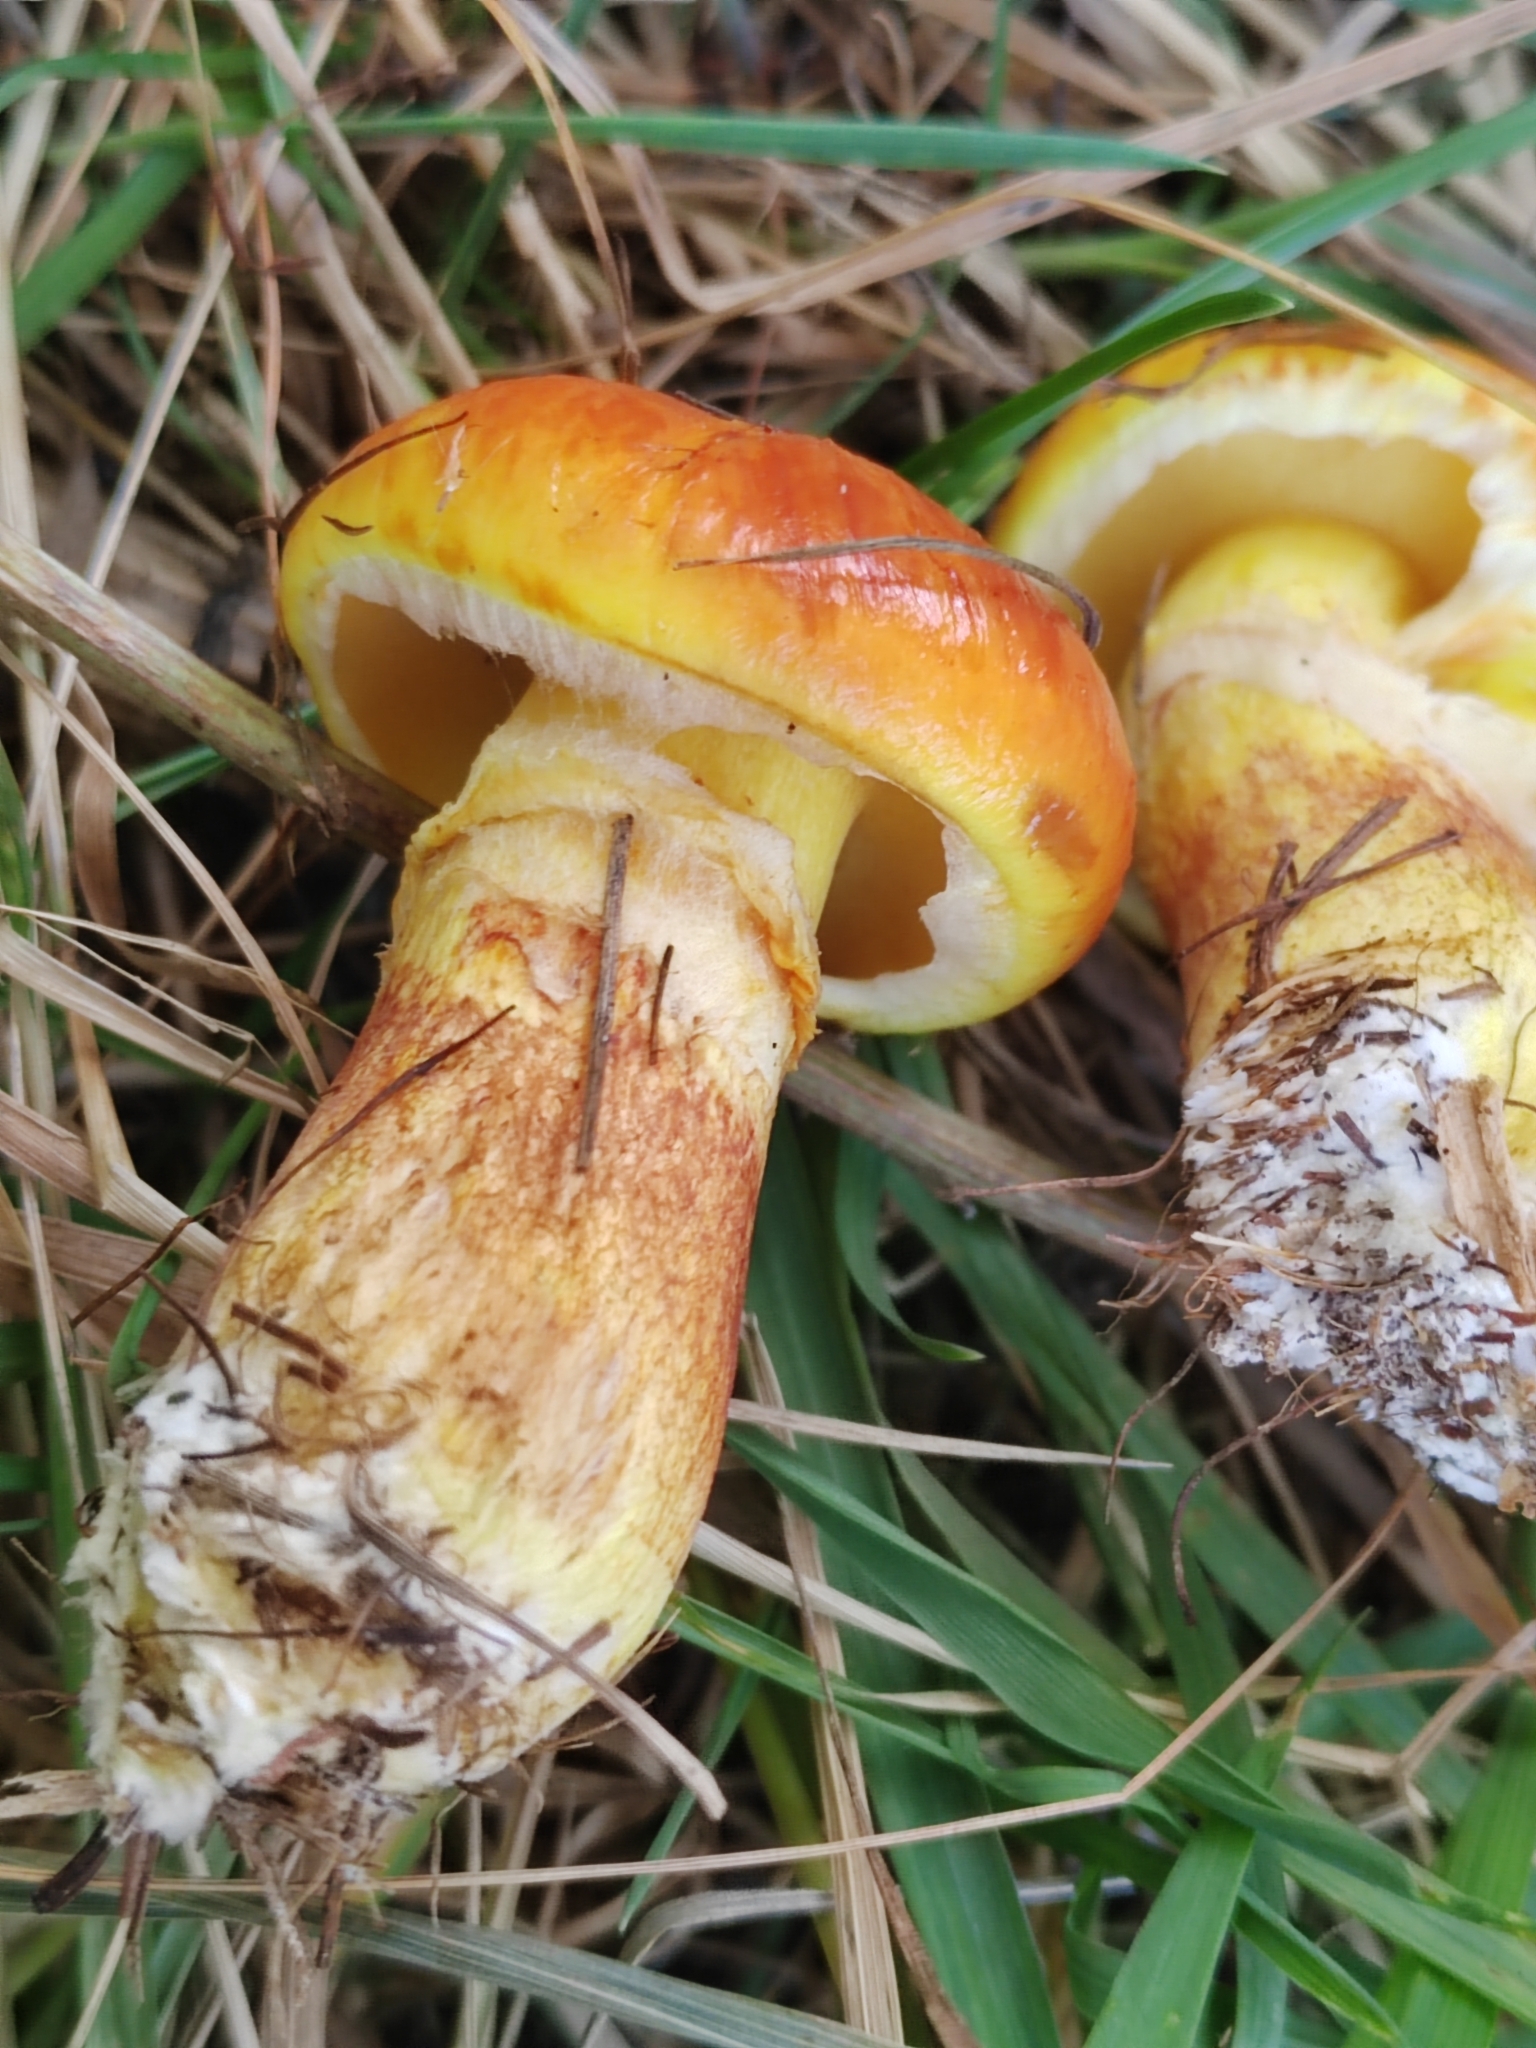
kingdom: Fungi
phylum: Basidiomycota
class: Agaricomycetes
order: Boletales
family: Suillaceae
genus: Suillus
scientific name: Suillus grevillei
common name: Larch bolete
